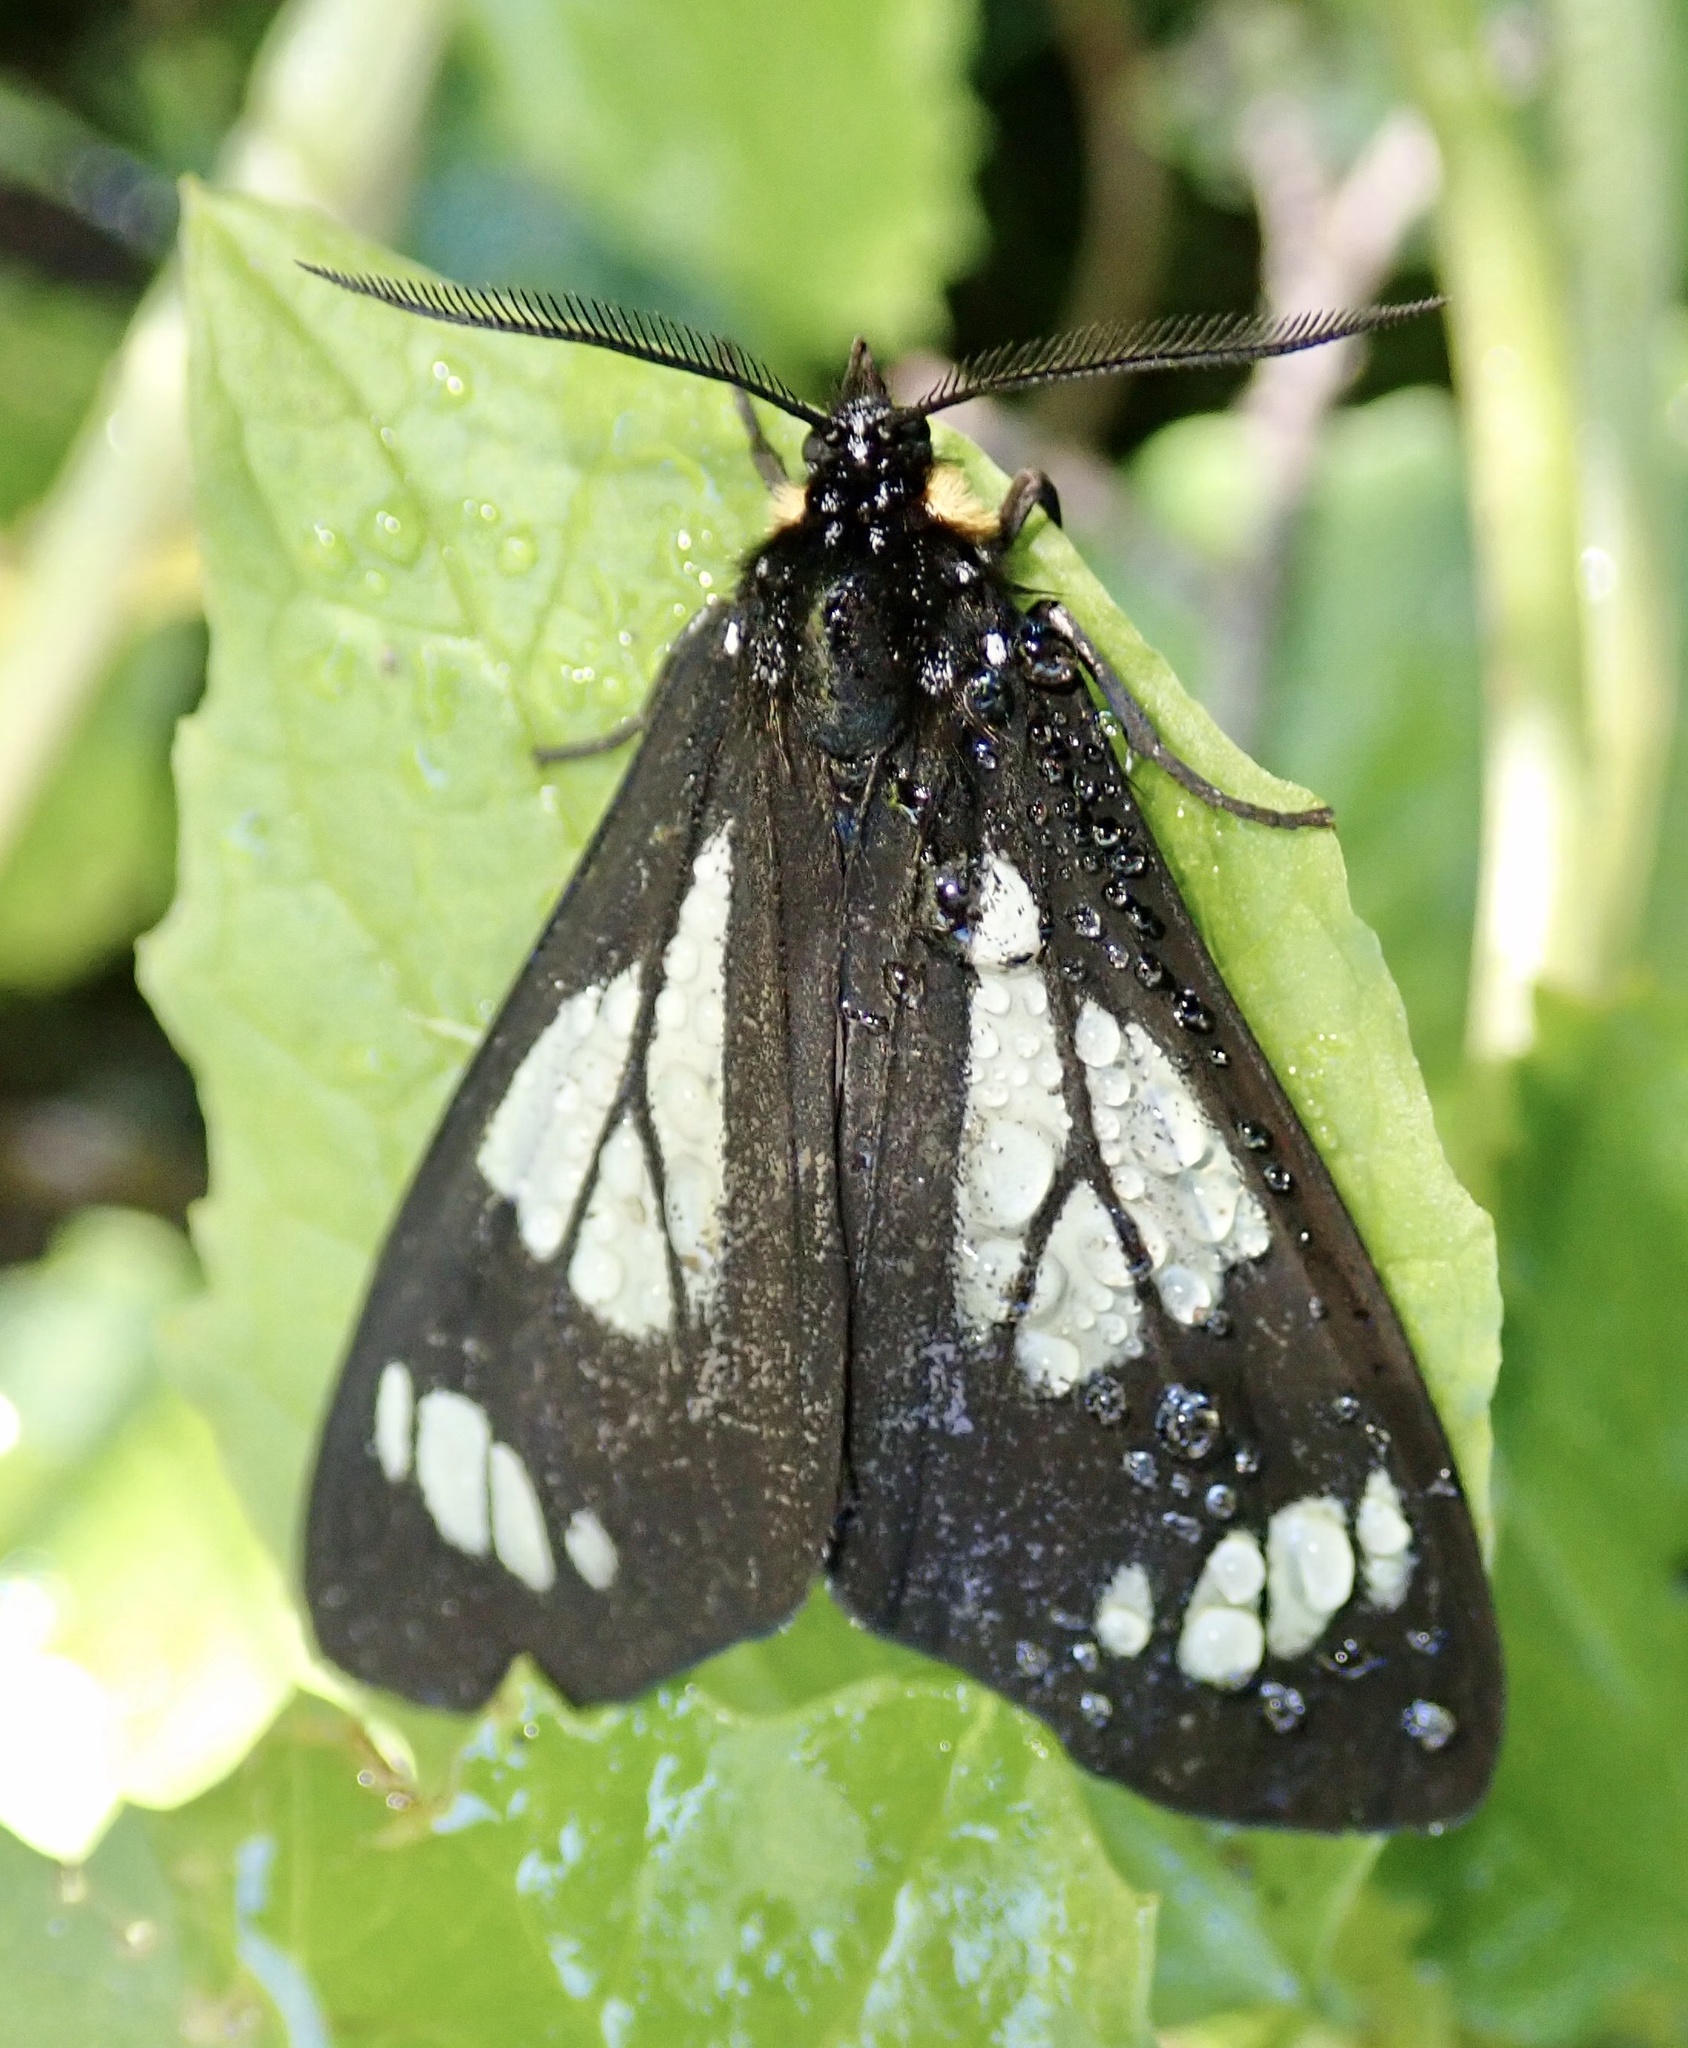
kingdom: Animalia
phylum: Arthropoda
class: Insecta
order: Lepidoptera
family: Erebidae
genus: Gnophaela
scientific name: Gnophaela vermiculata
